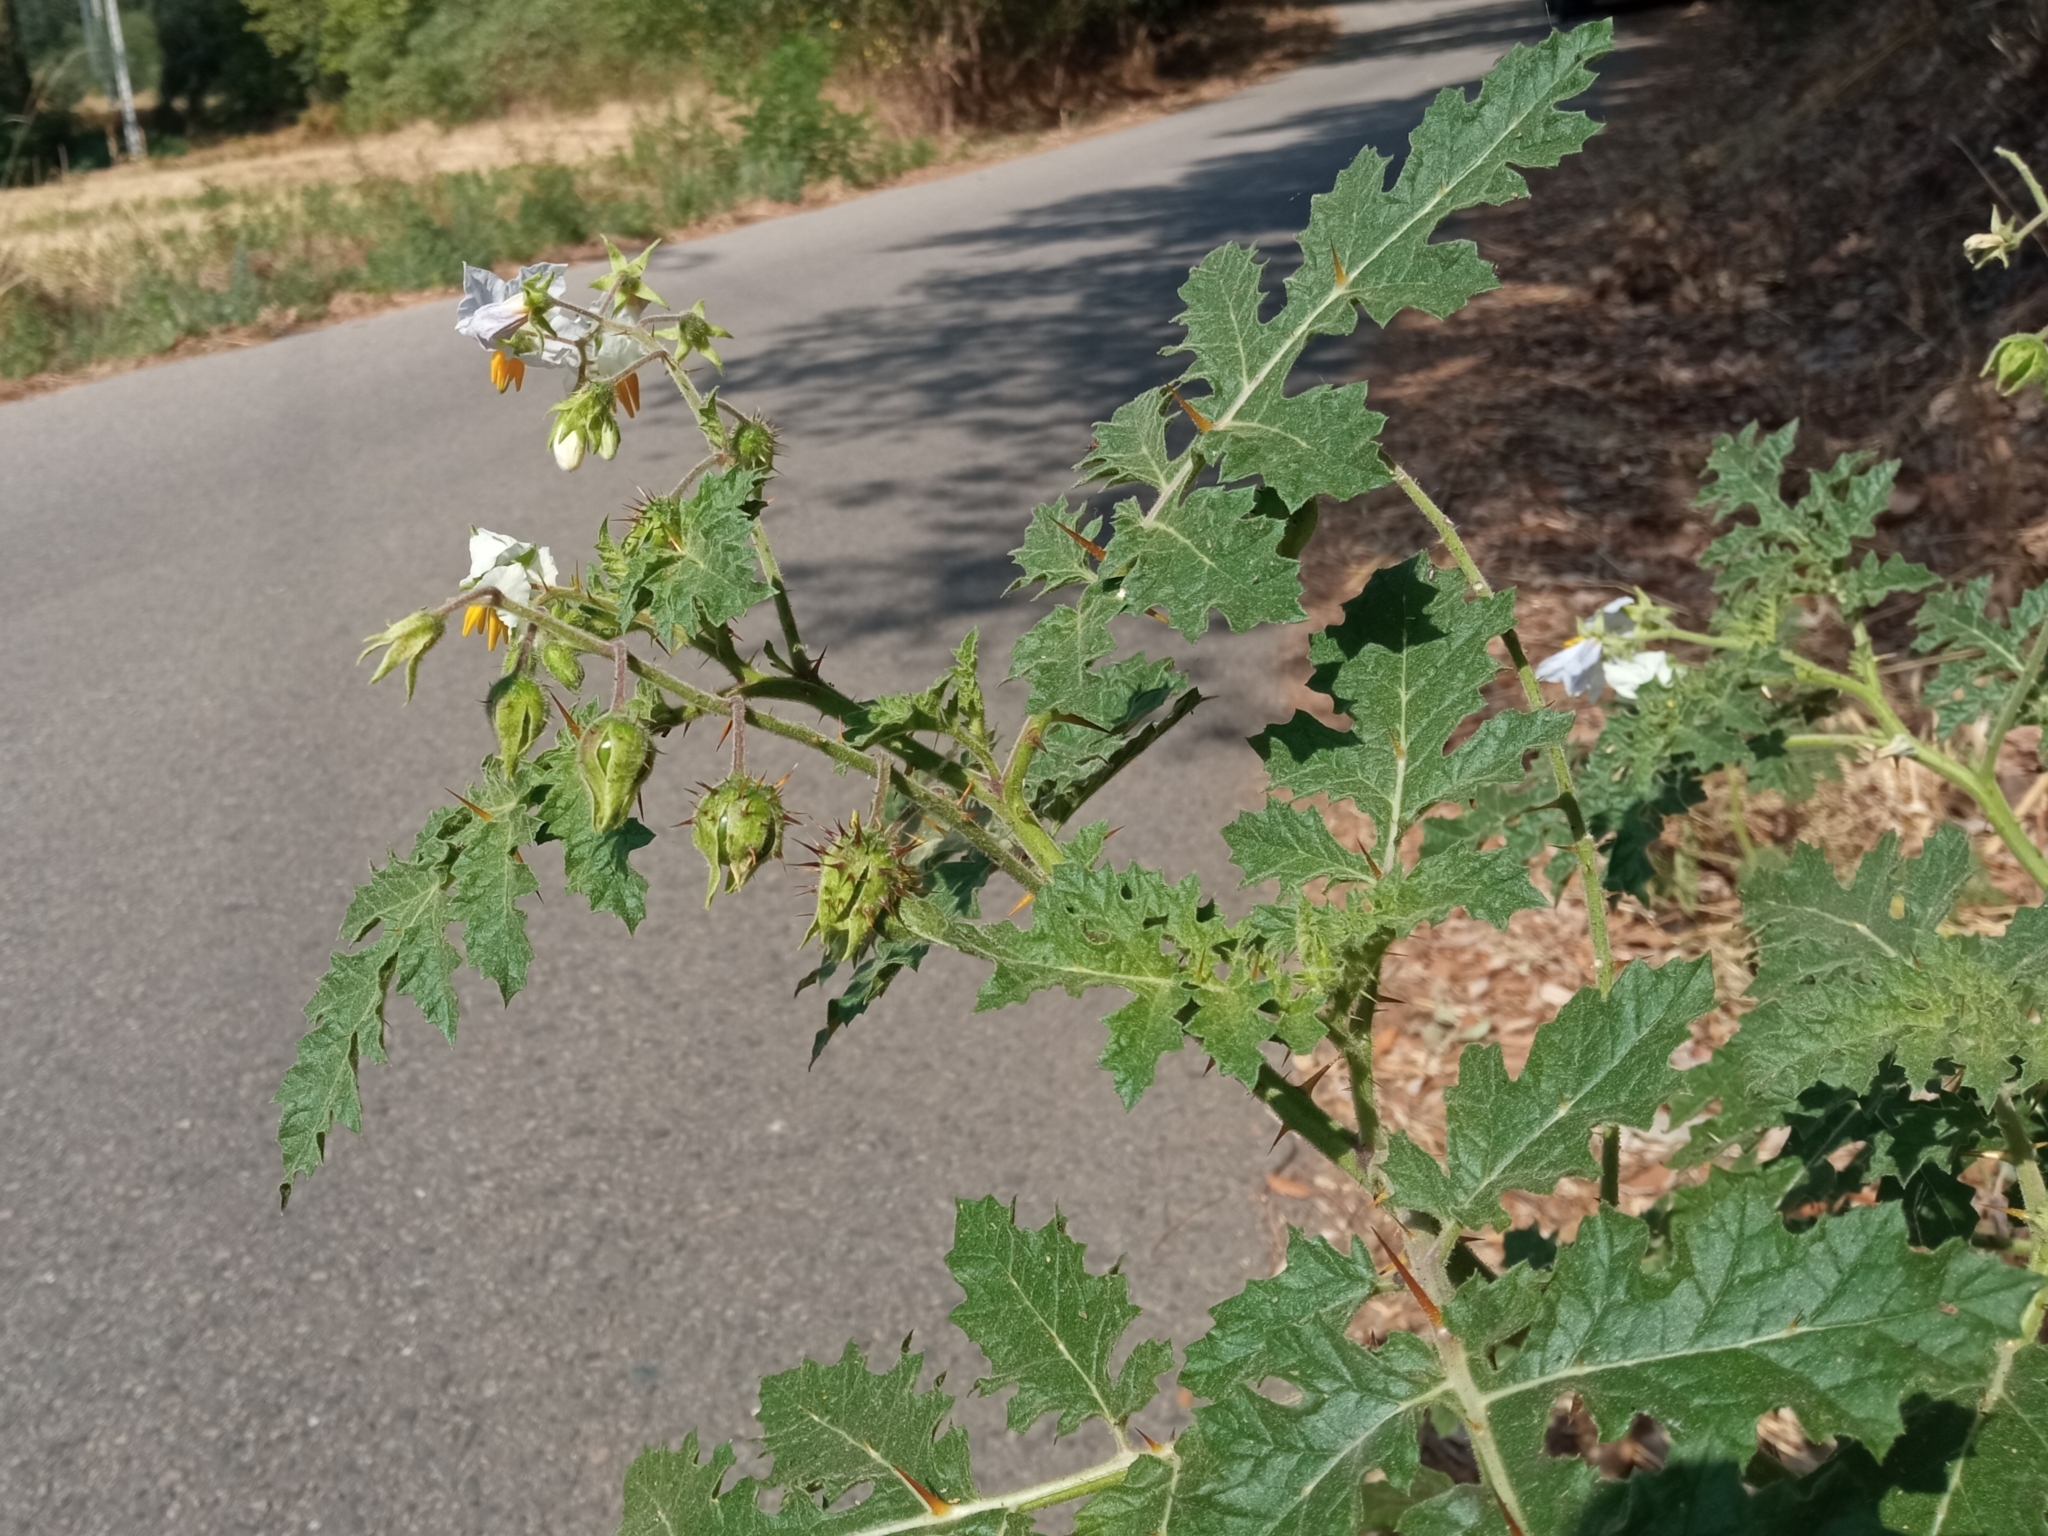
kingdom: Plantae
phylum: Tracheophyta
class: Magnoliopsida
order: Solanales
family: Solanaceae
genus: Solanum
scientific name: Solanum sisymbriifolium
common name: Red buffalo-bur
